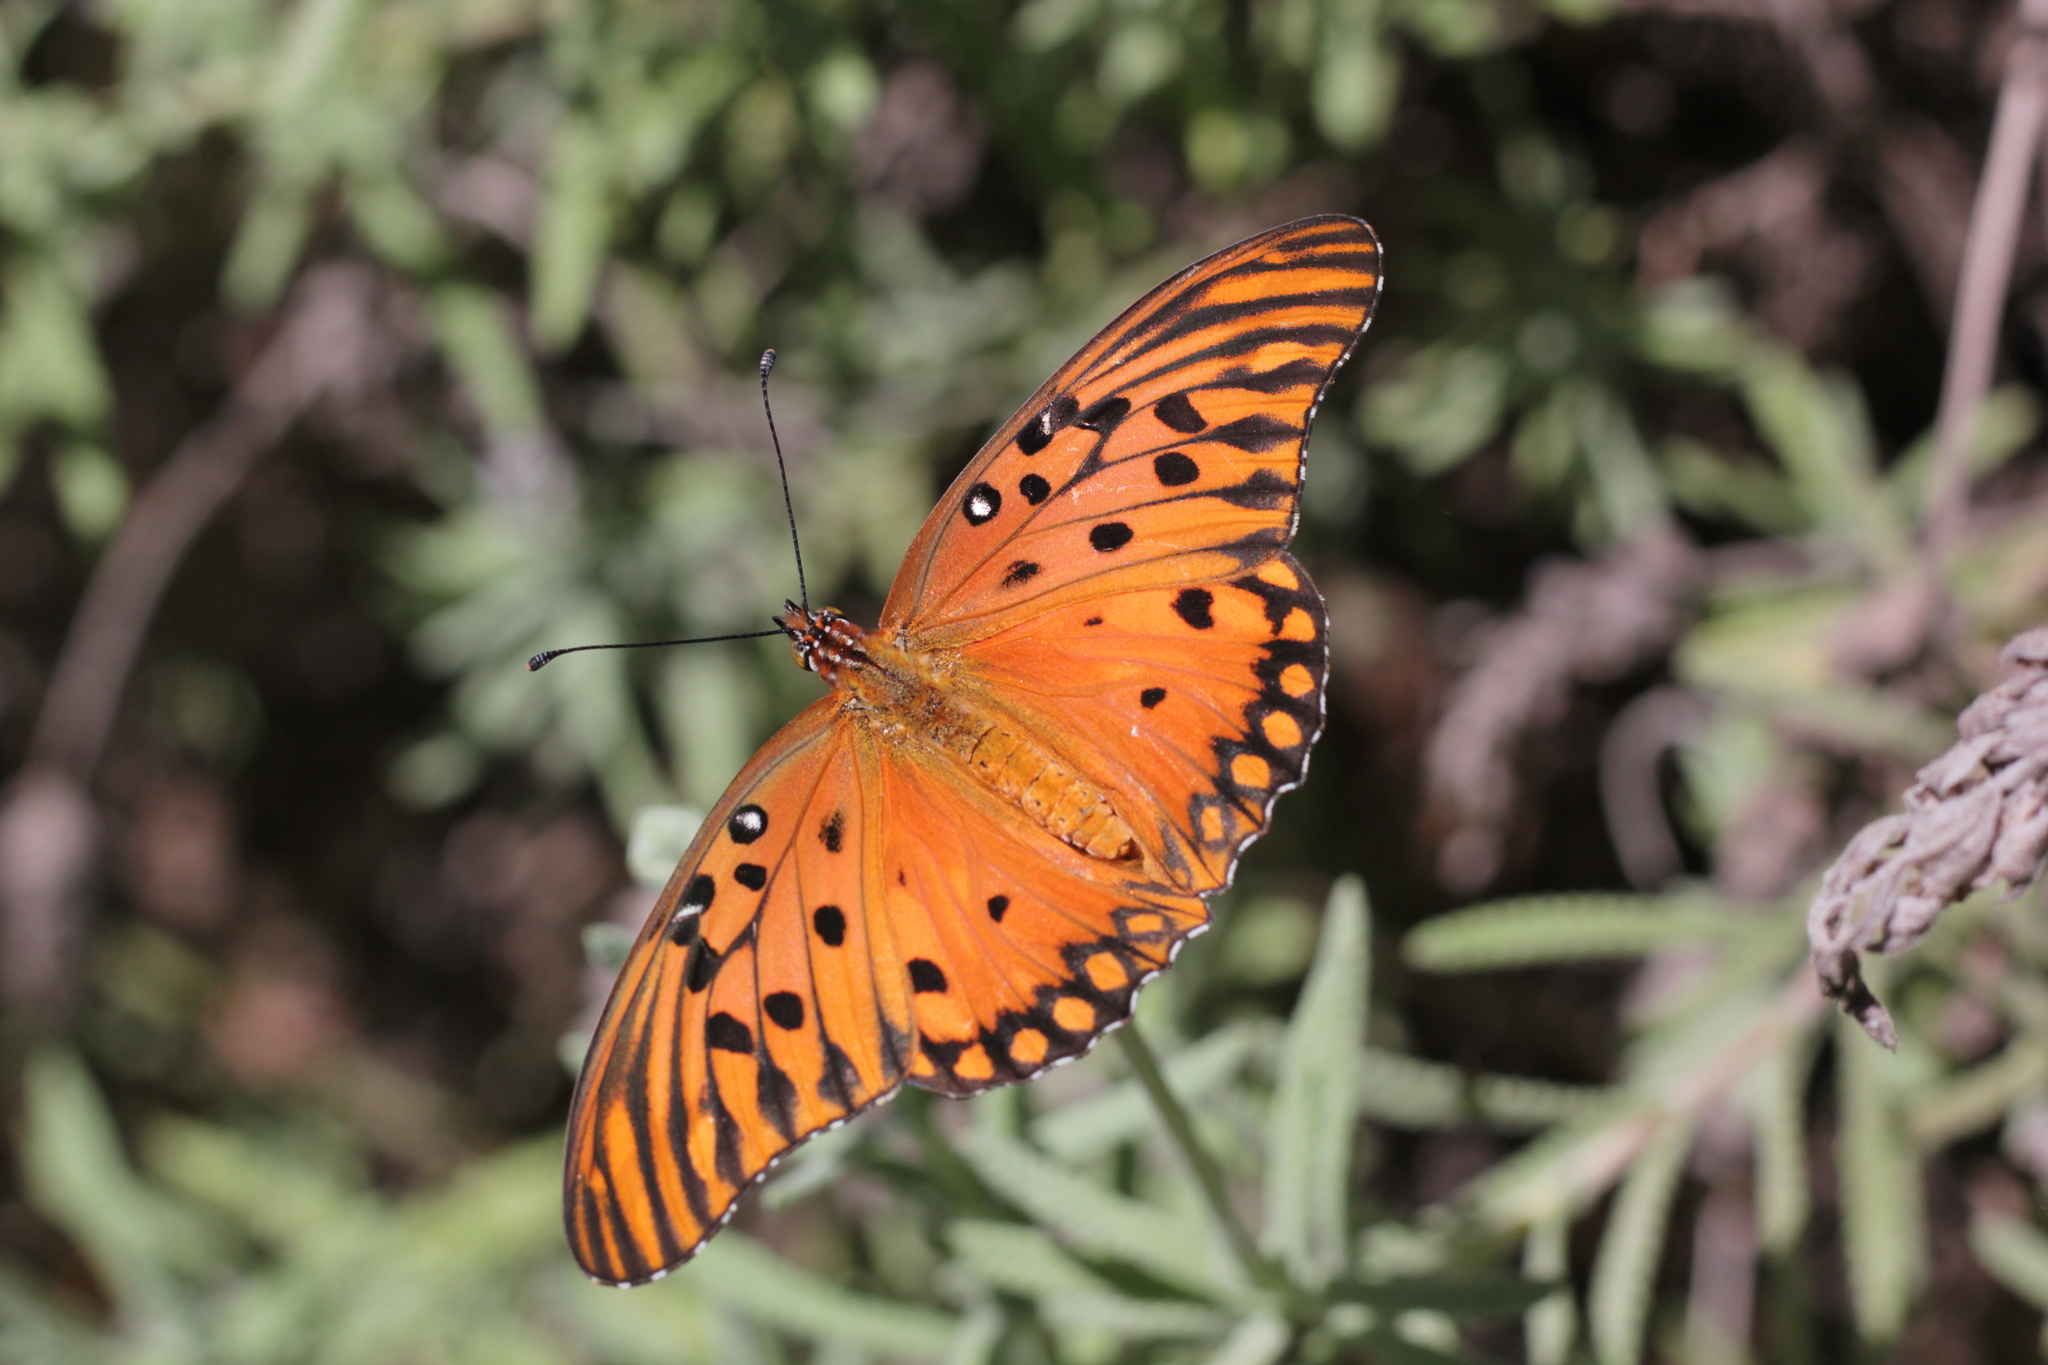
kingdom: Animalia
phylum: Arthropoda
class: Insecta
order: Lepidoptera
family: Nymphalidae
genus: Dione
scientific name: Dione vanillae
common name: Gulf fritillary
